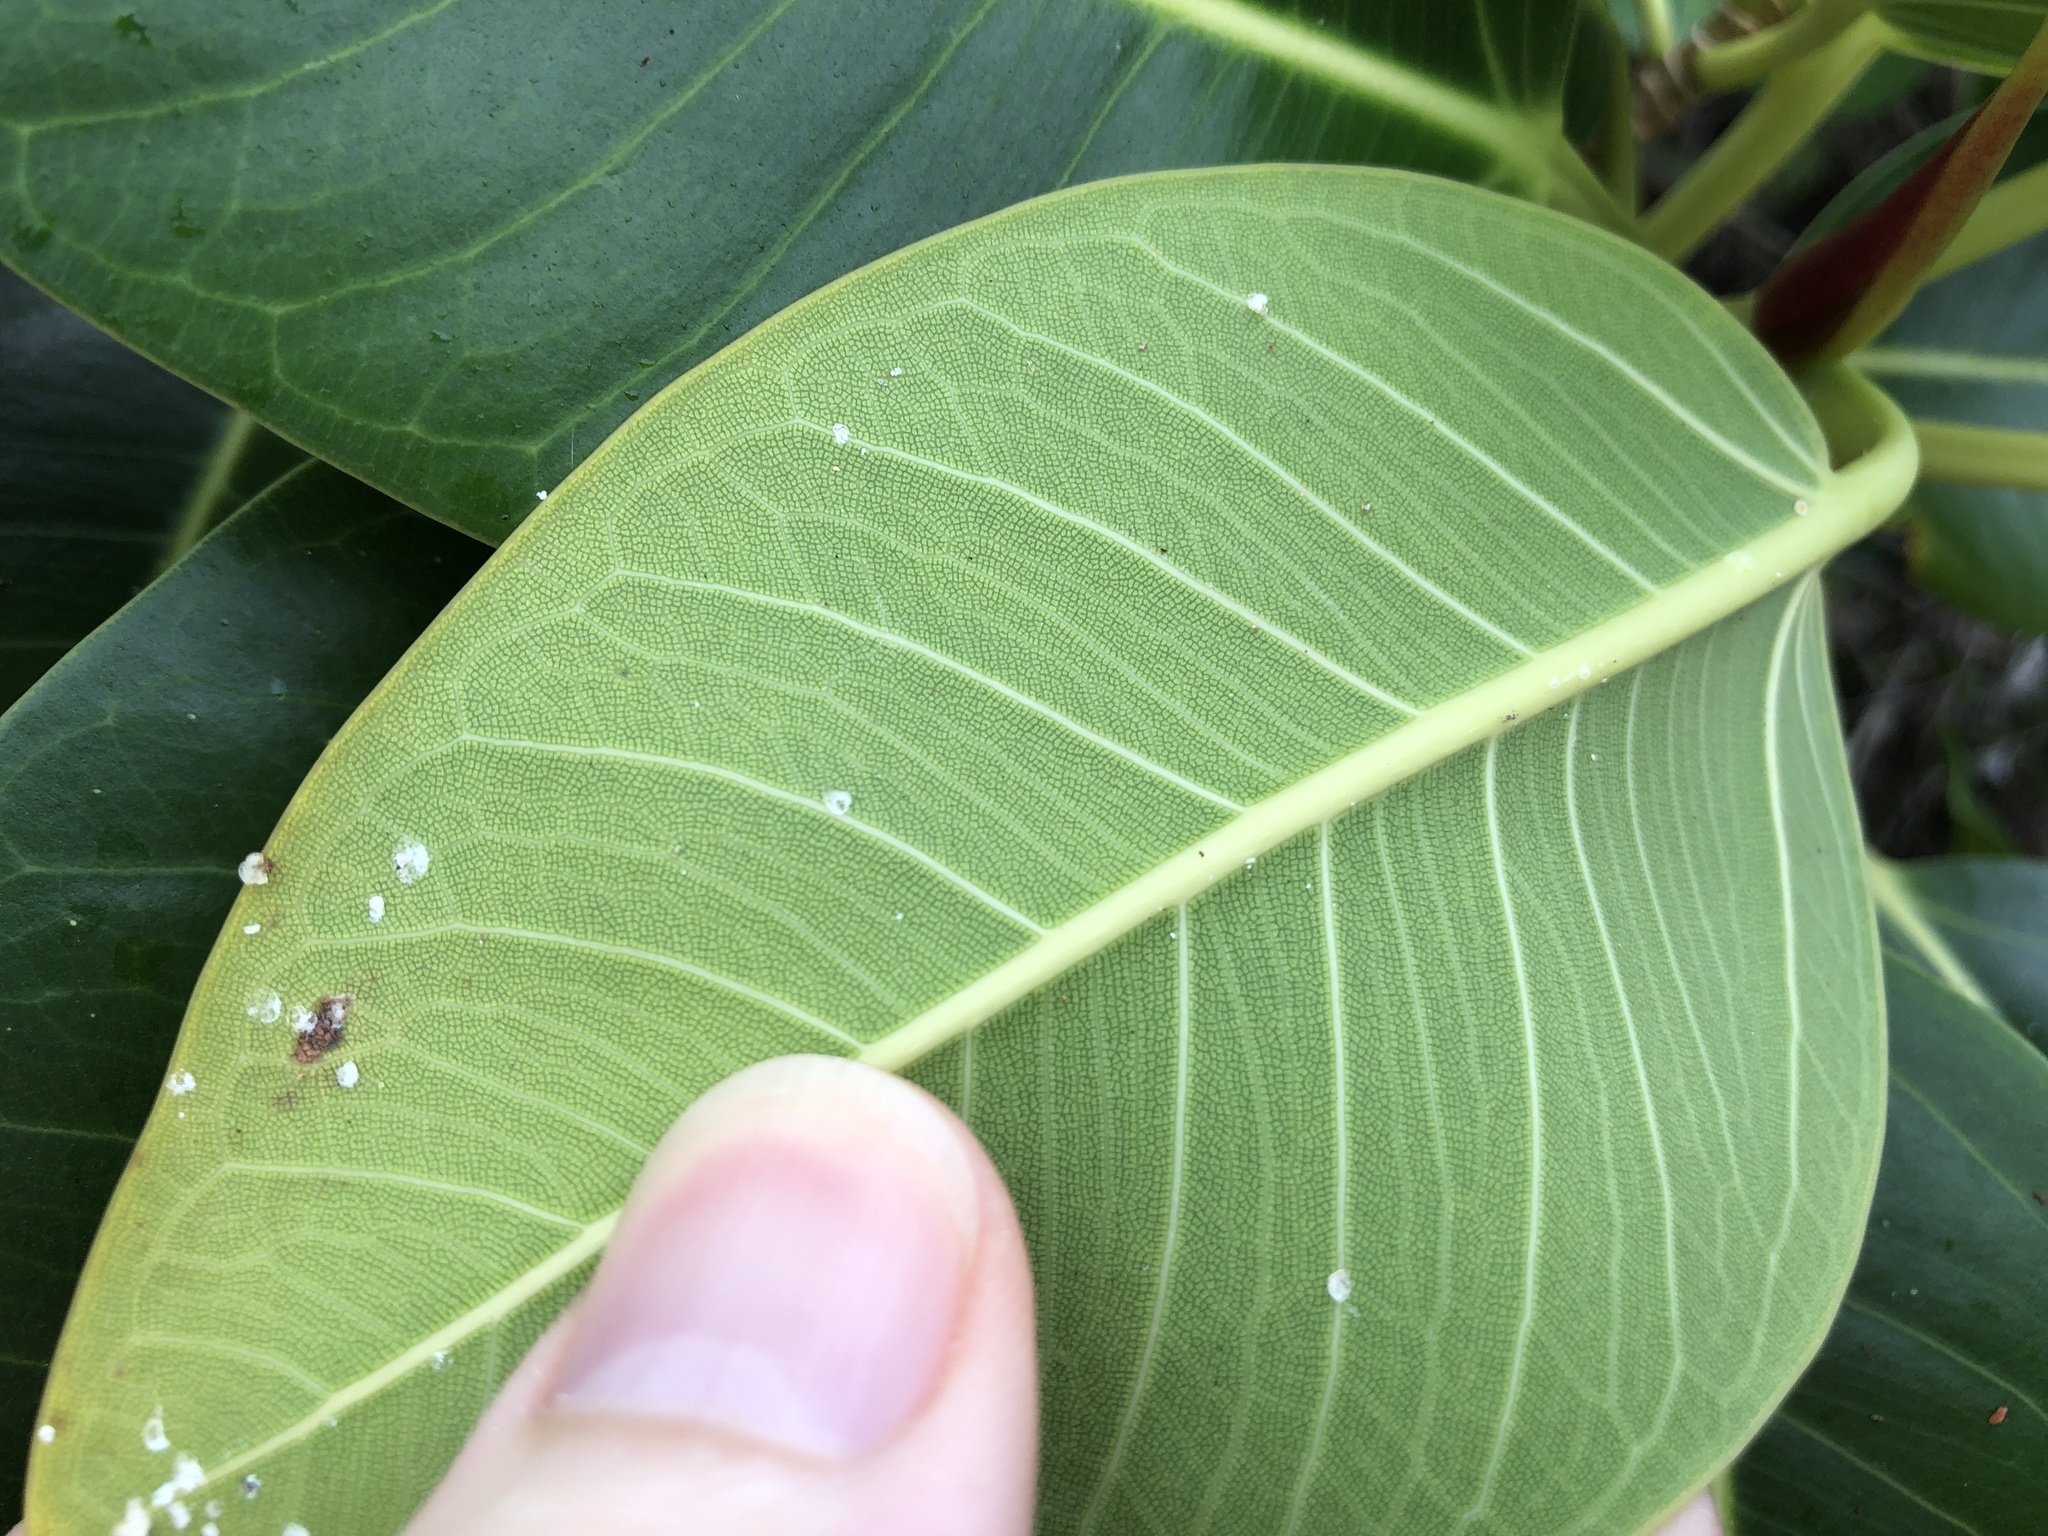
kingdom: Plantae
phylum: Tracheophyta
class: Magnoliopsida
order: Rosales
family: Moraceae
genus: Ficus
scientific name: Ficus rubiginosa
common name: Port jackson fig
